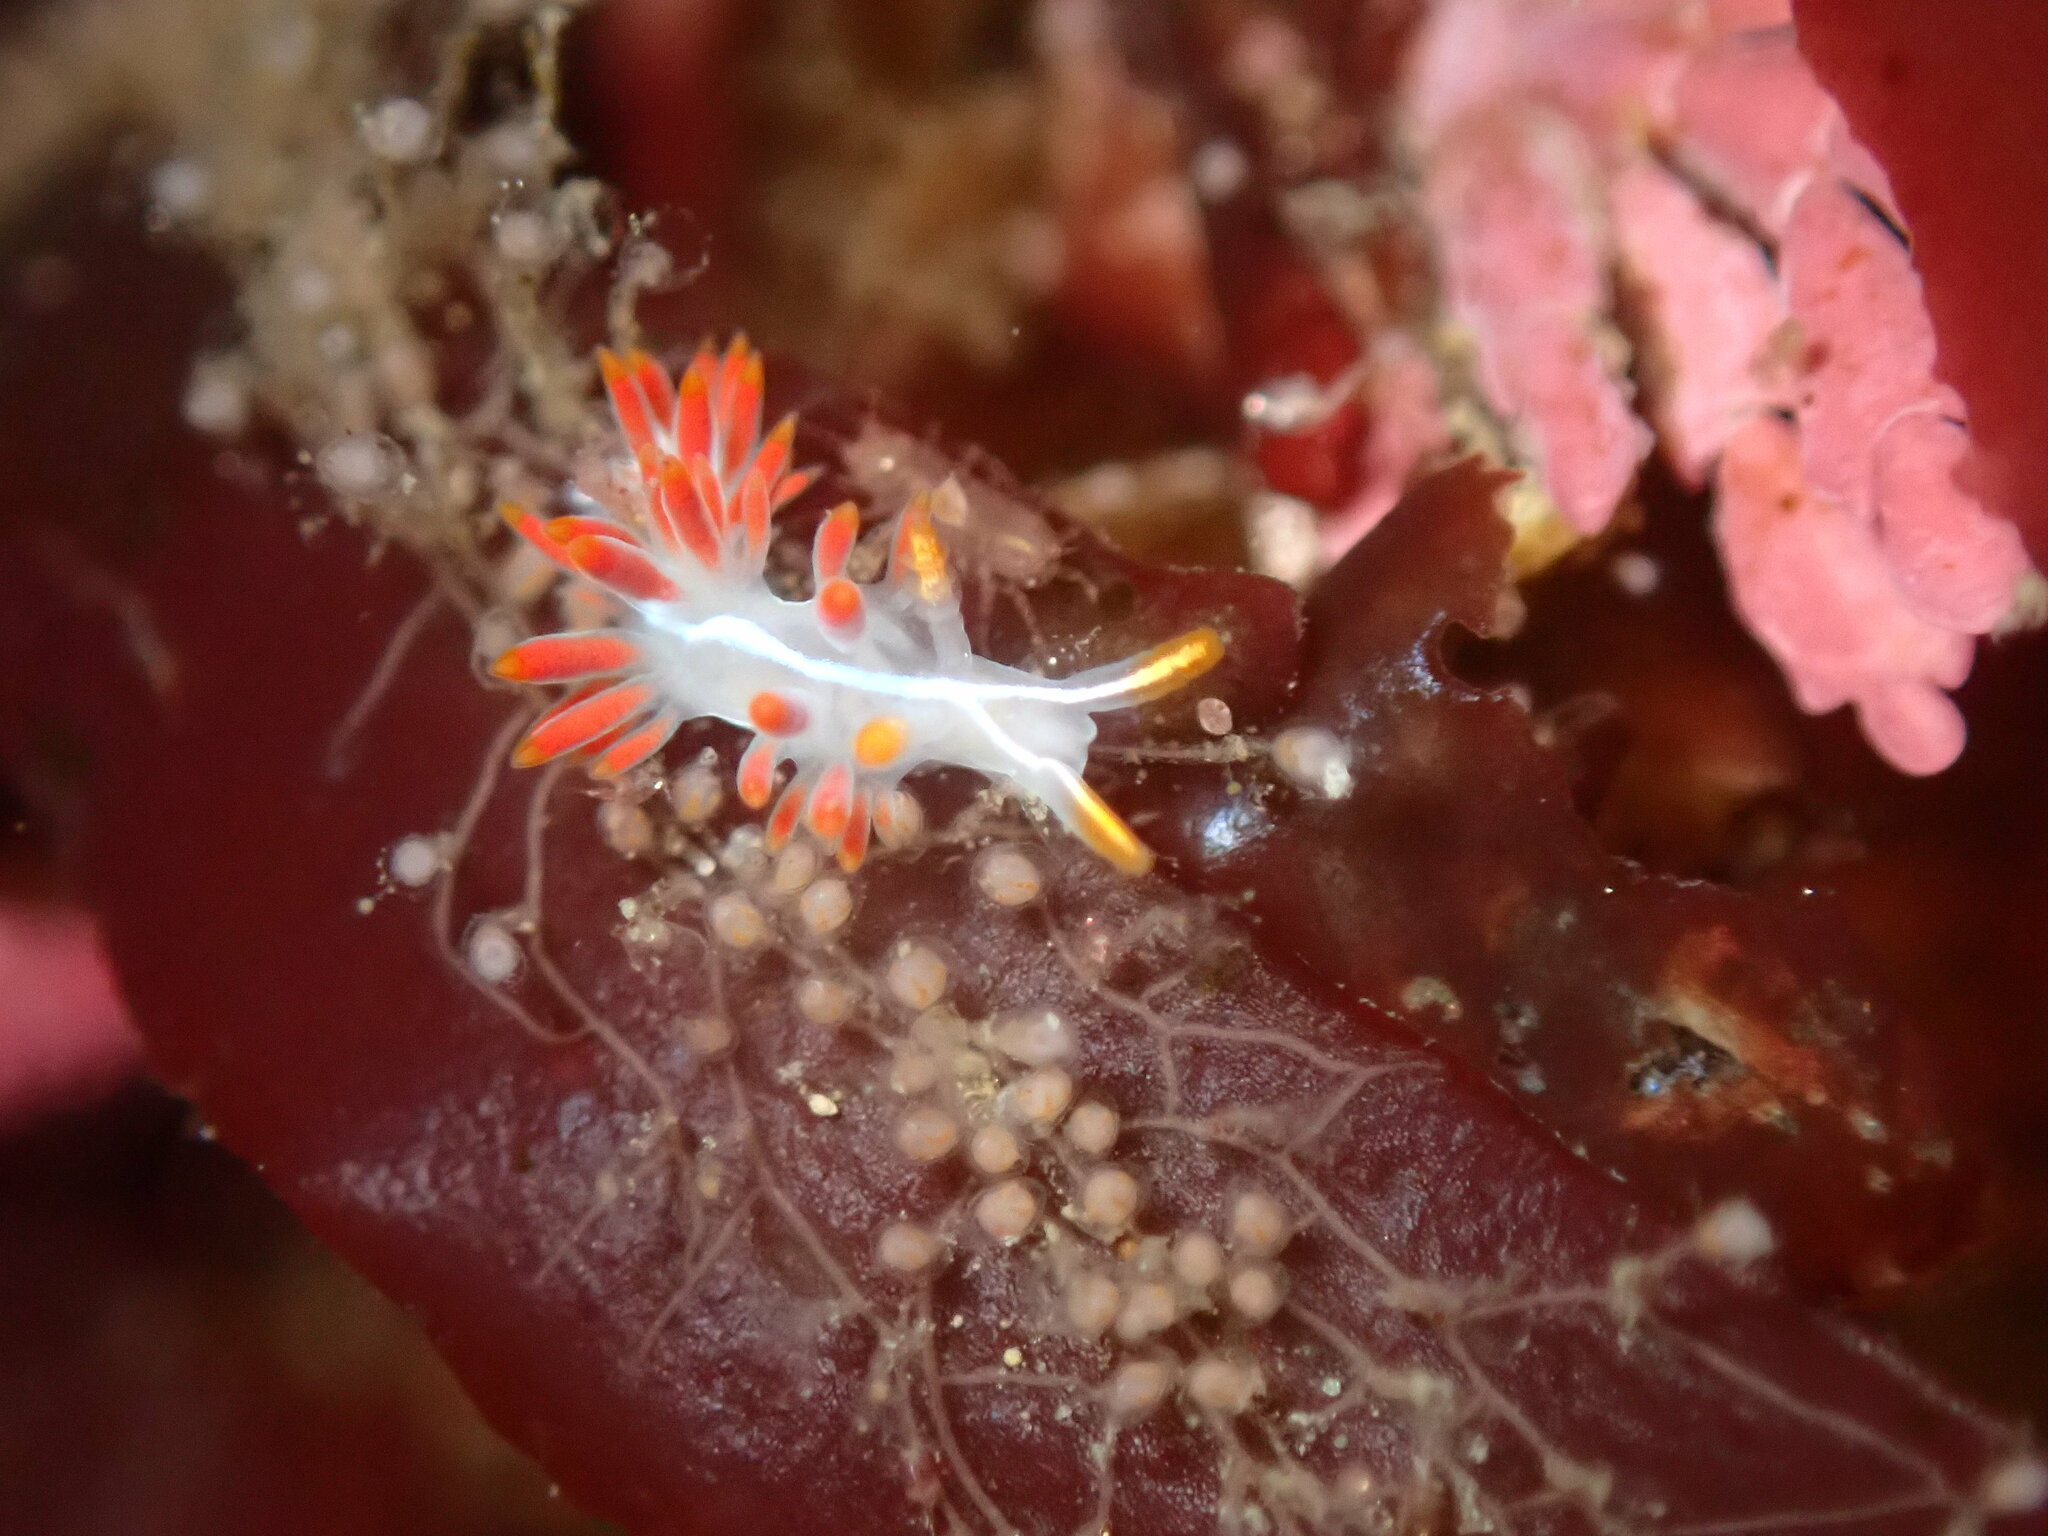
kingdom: Animalia
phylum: Mollusca
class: Gastropoda
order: Nudibranchia
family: Coryphellidae
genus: Coryphella
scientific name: Coryphella trilineata
